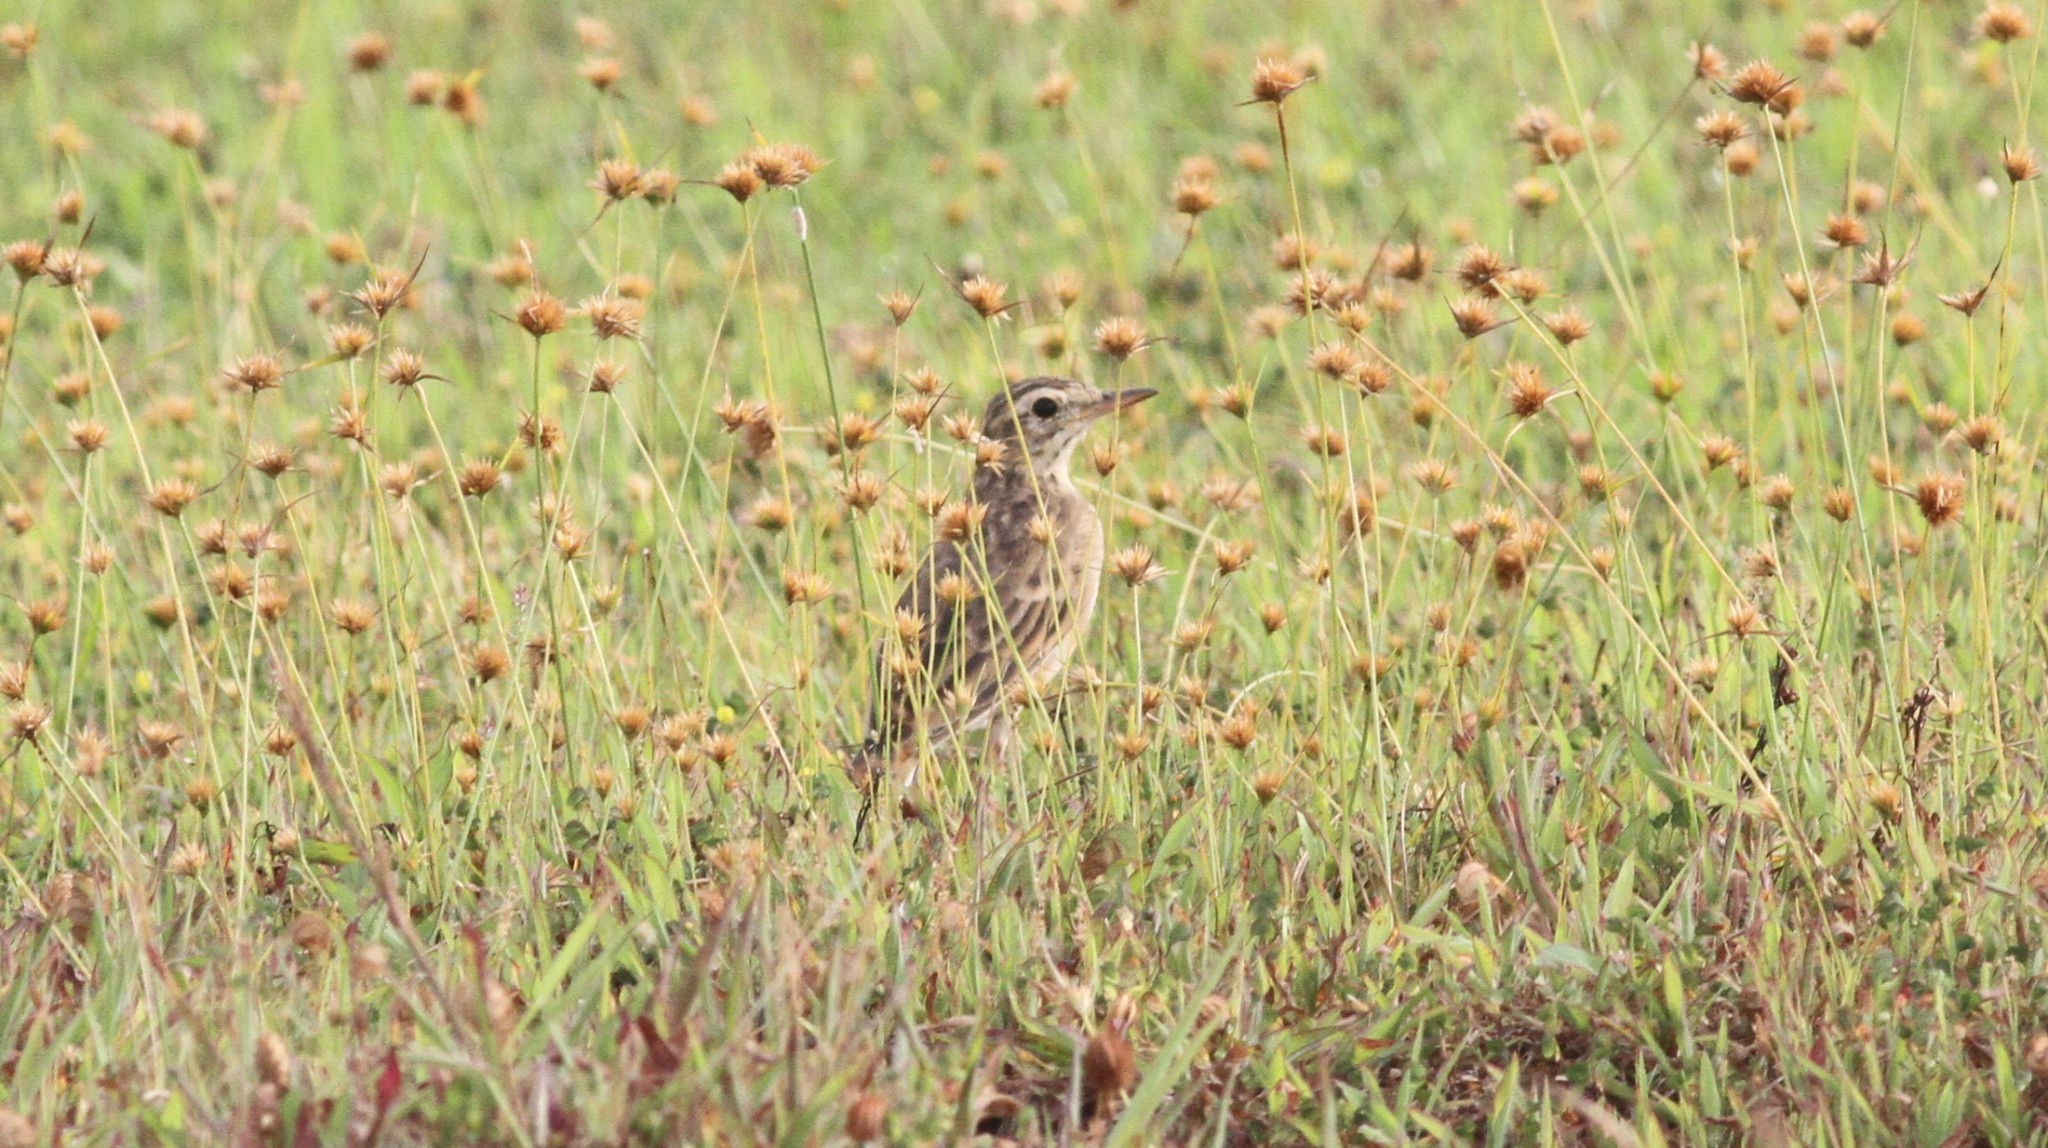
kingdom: Animalia
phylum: Chordata
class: Aves
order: Passeriformes
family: Motacillidae
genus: Anthus
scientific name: Anthus rufulus
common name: Paddyfield pipit
